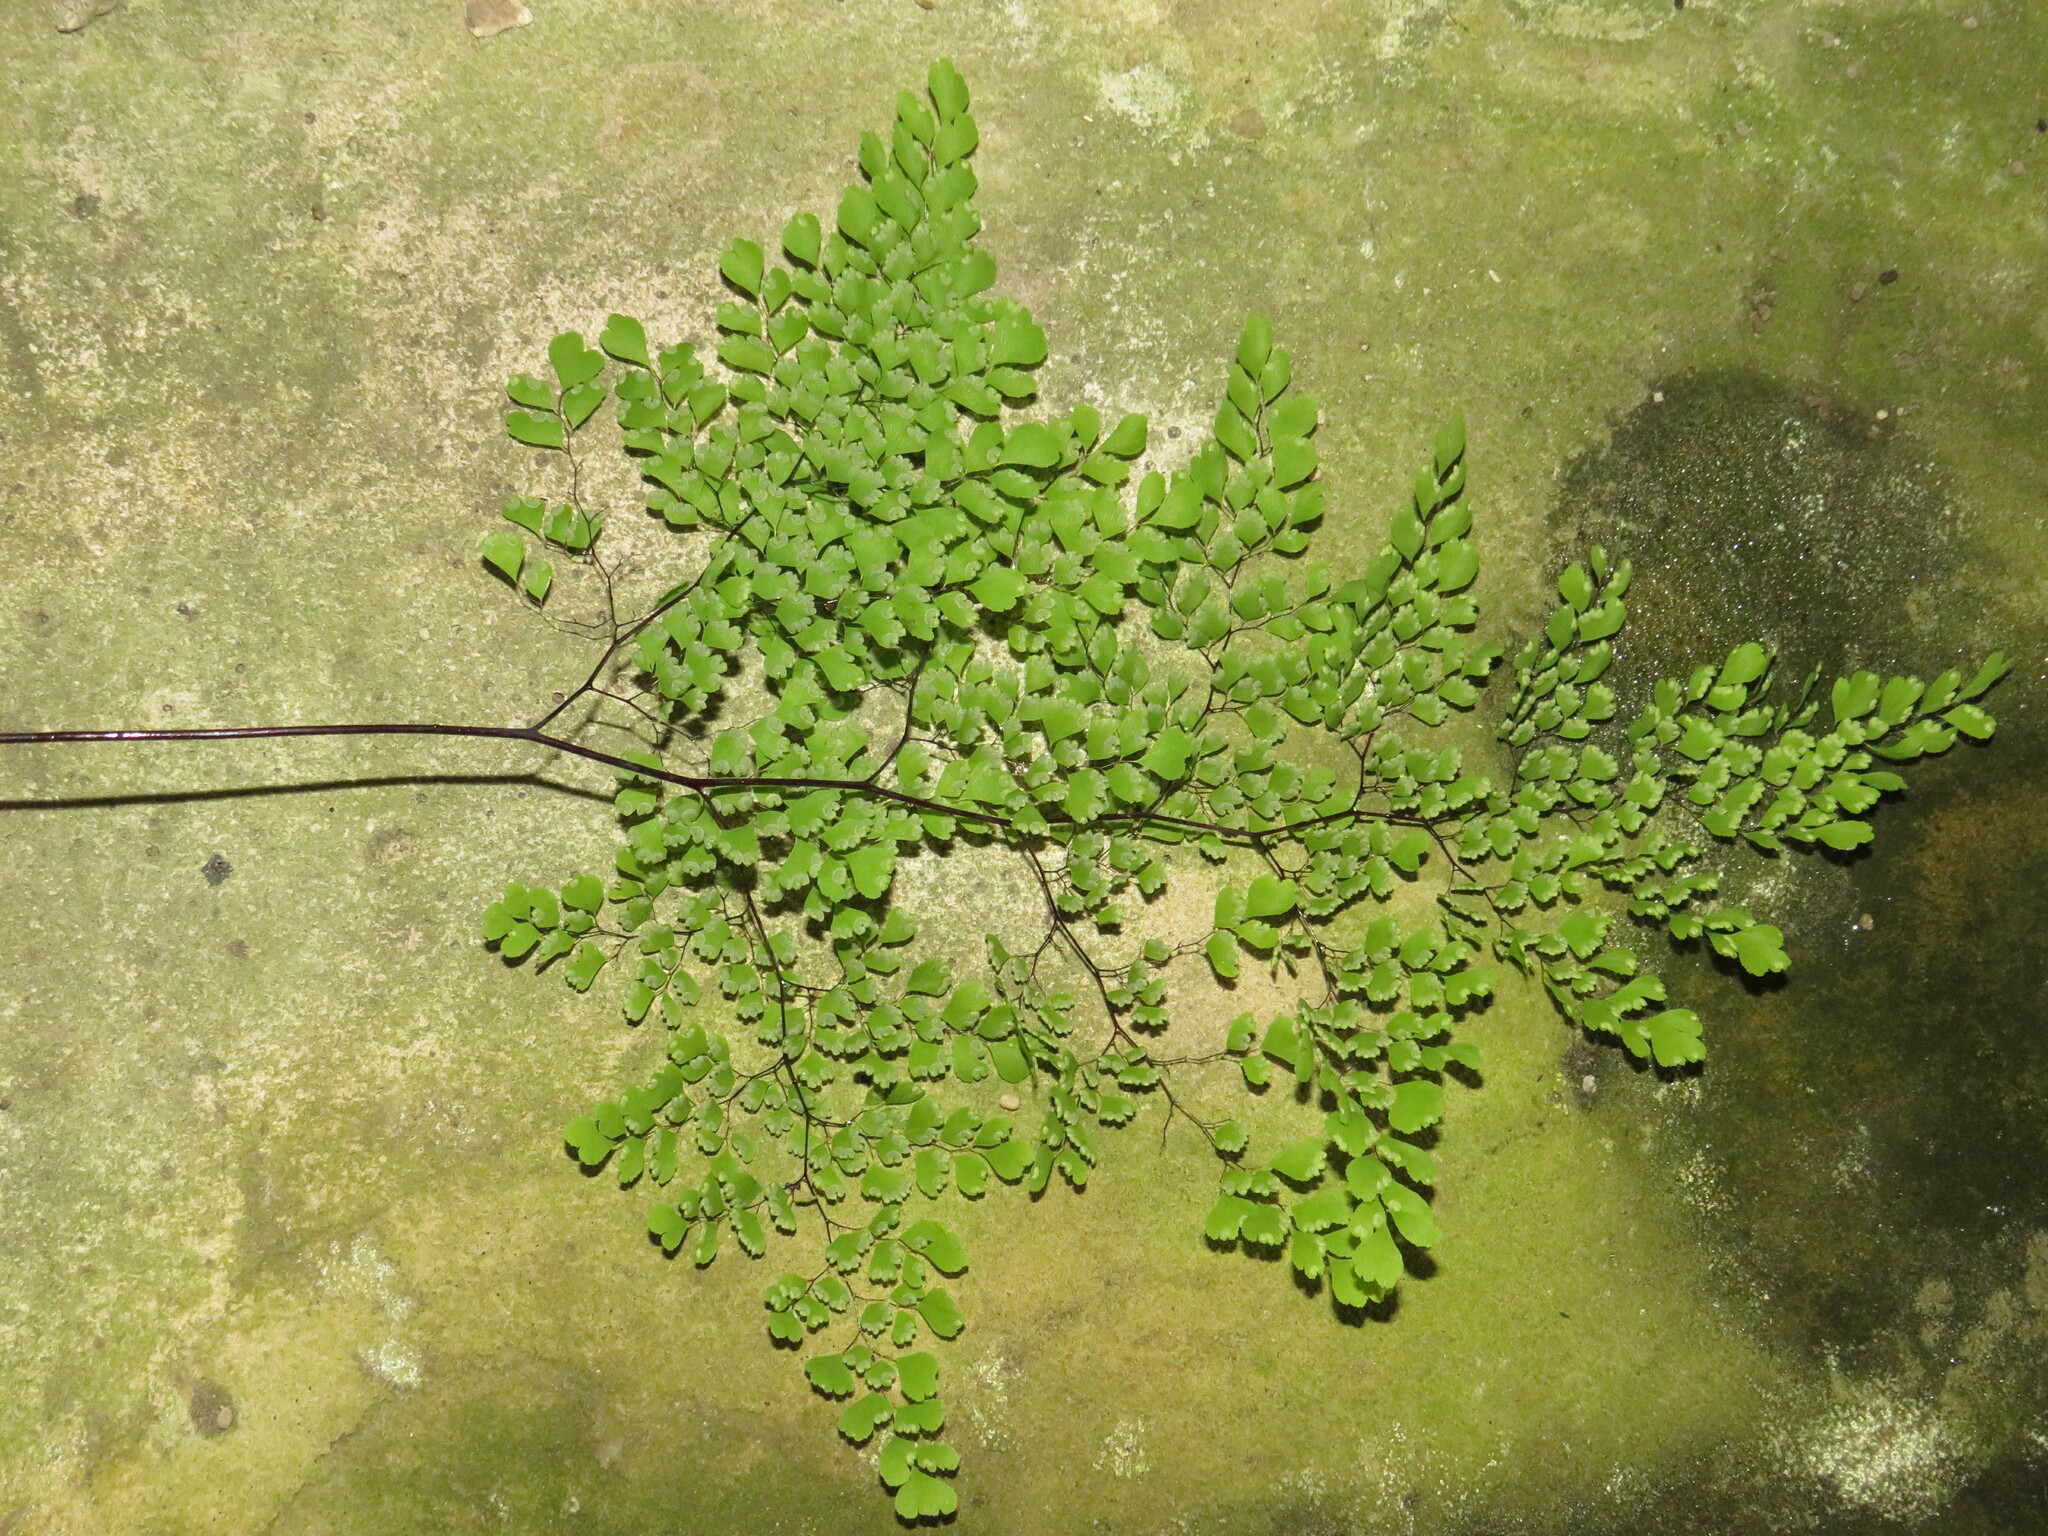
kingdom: Plantae
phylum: Tracheophyta
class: Polypodiopsida
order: Polypodiales
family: Pteridaceae
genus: Adiantum
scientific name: Adiantum raddianum
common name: Delta maidenhair fern
